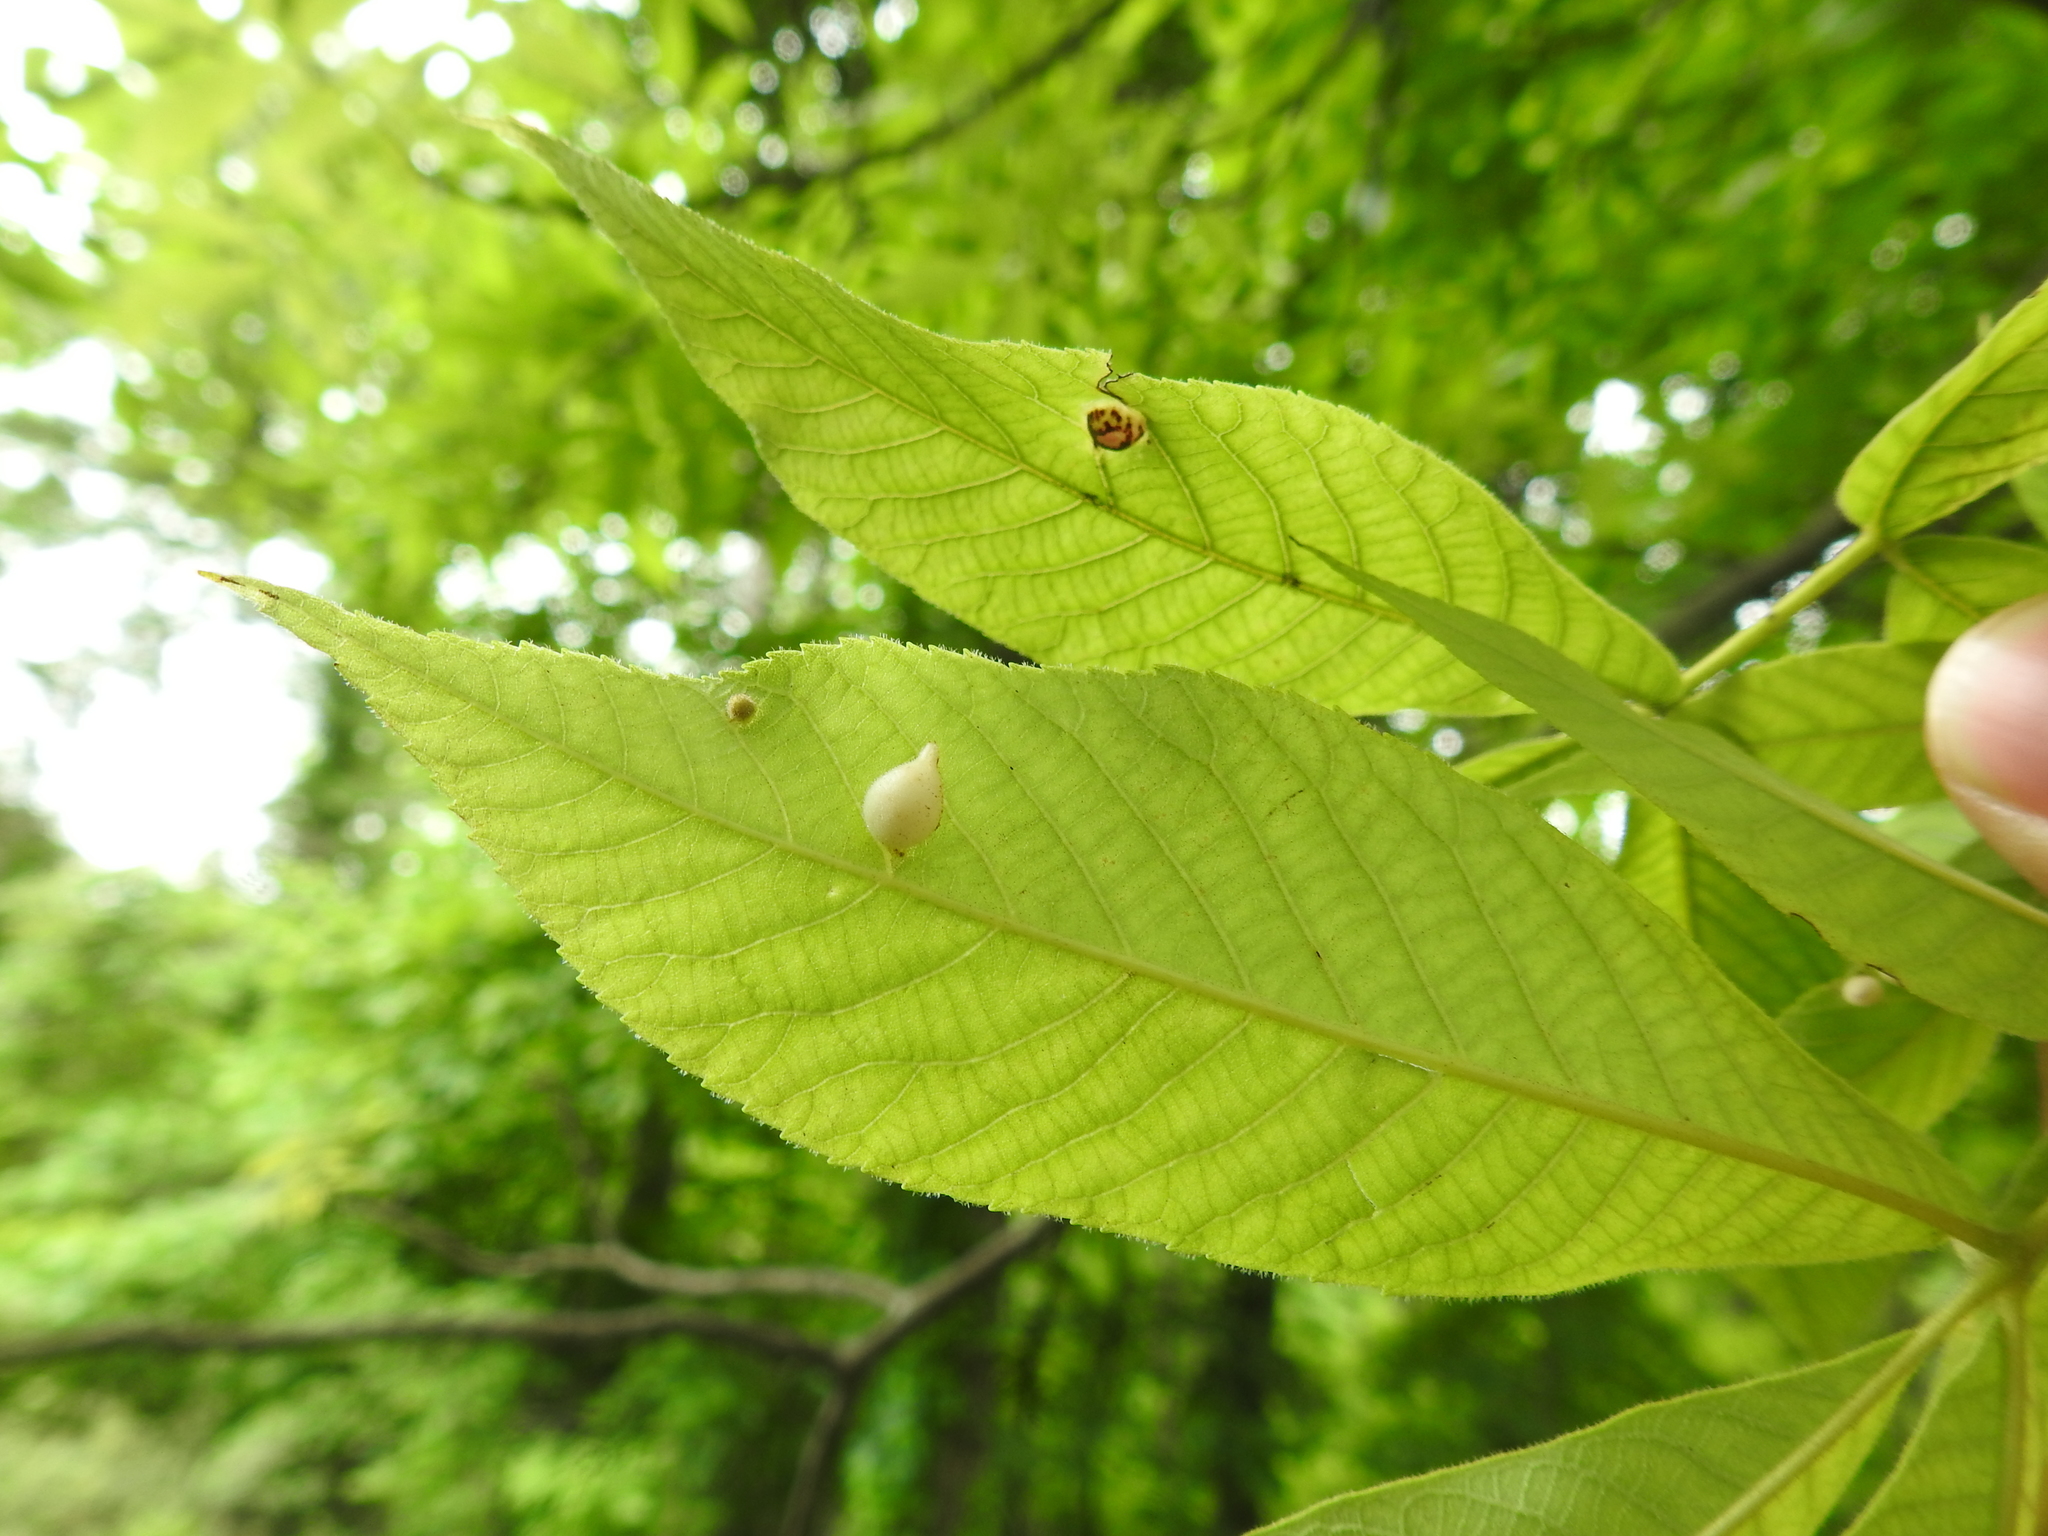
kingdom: Animalia
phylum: Arthropoda
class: Insecta
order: Hemiptera
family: Phylloxeridae
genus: Phylloxera
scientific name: Phylloxera caryaegummosa
